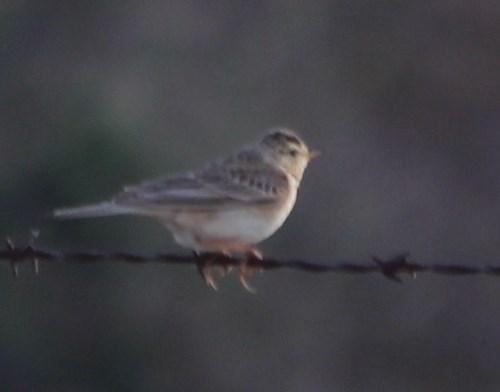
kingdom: Animalia
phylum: Chordata
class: Aves
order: Passeriformes
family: Alaudidae
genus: Galerida
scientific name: Galerida magnirostris
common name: Large-billed lark
